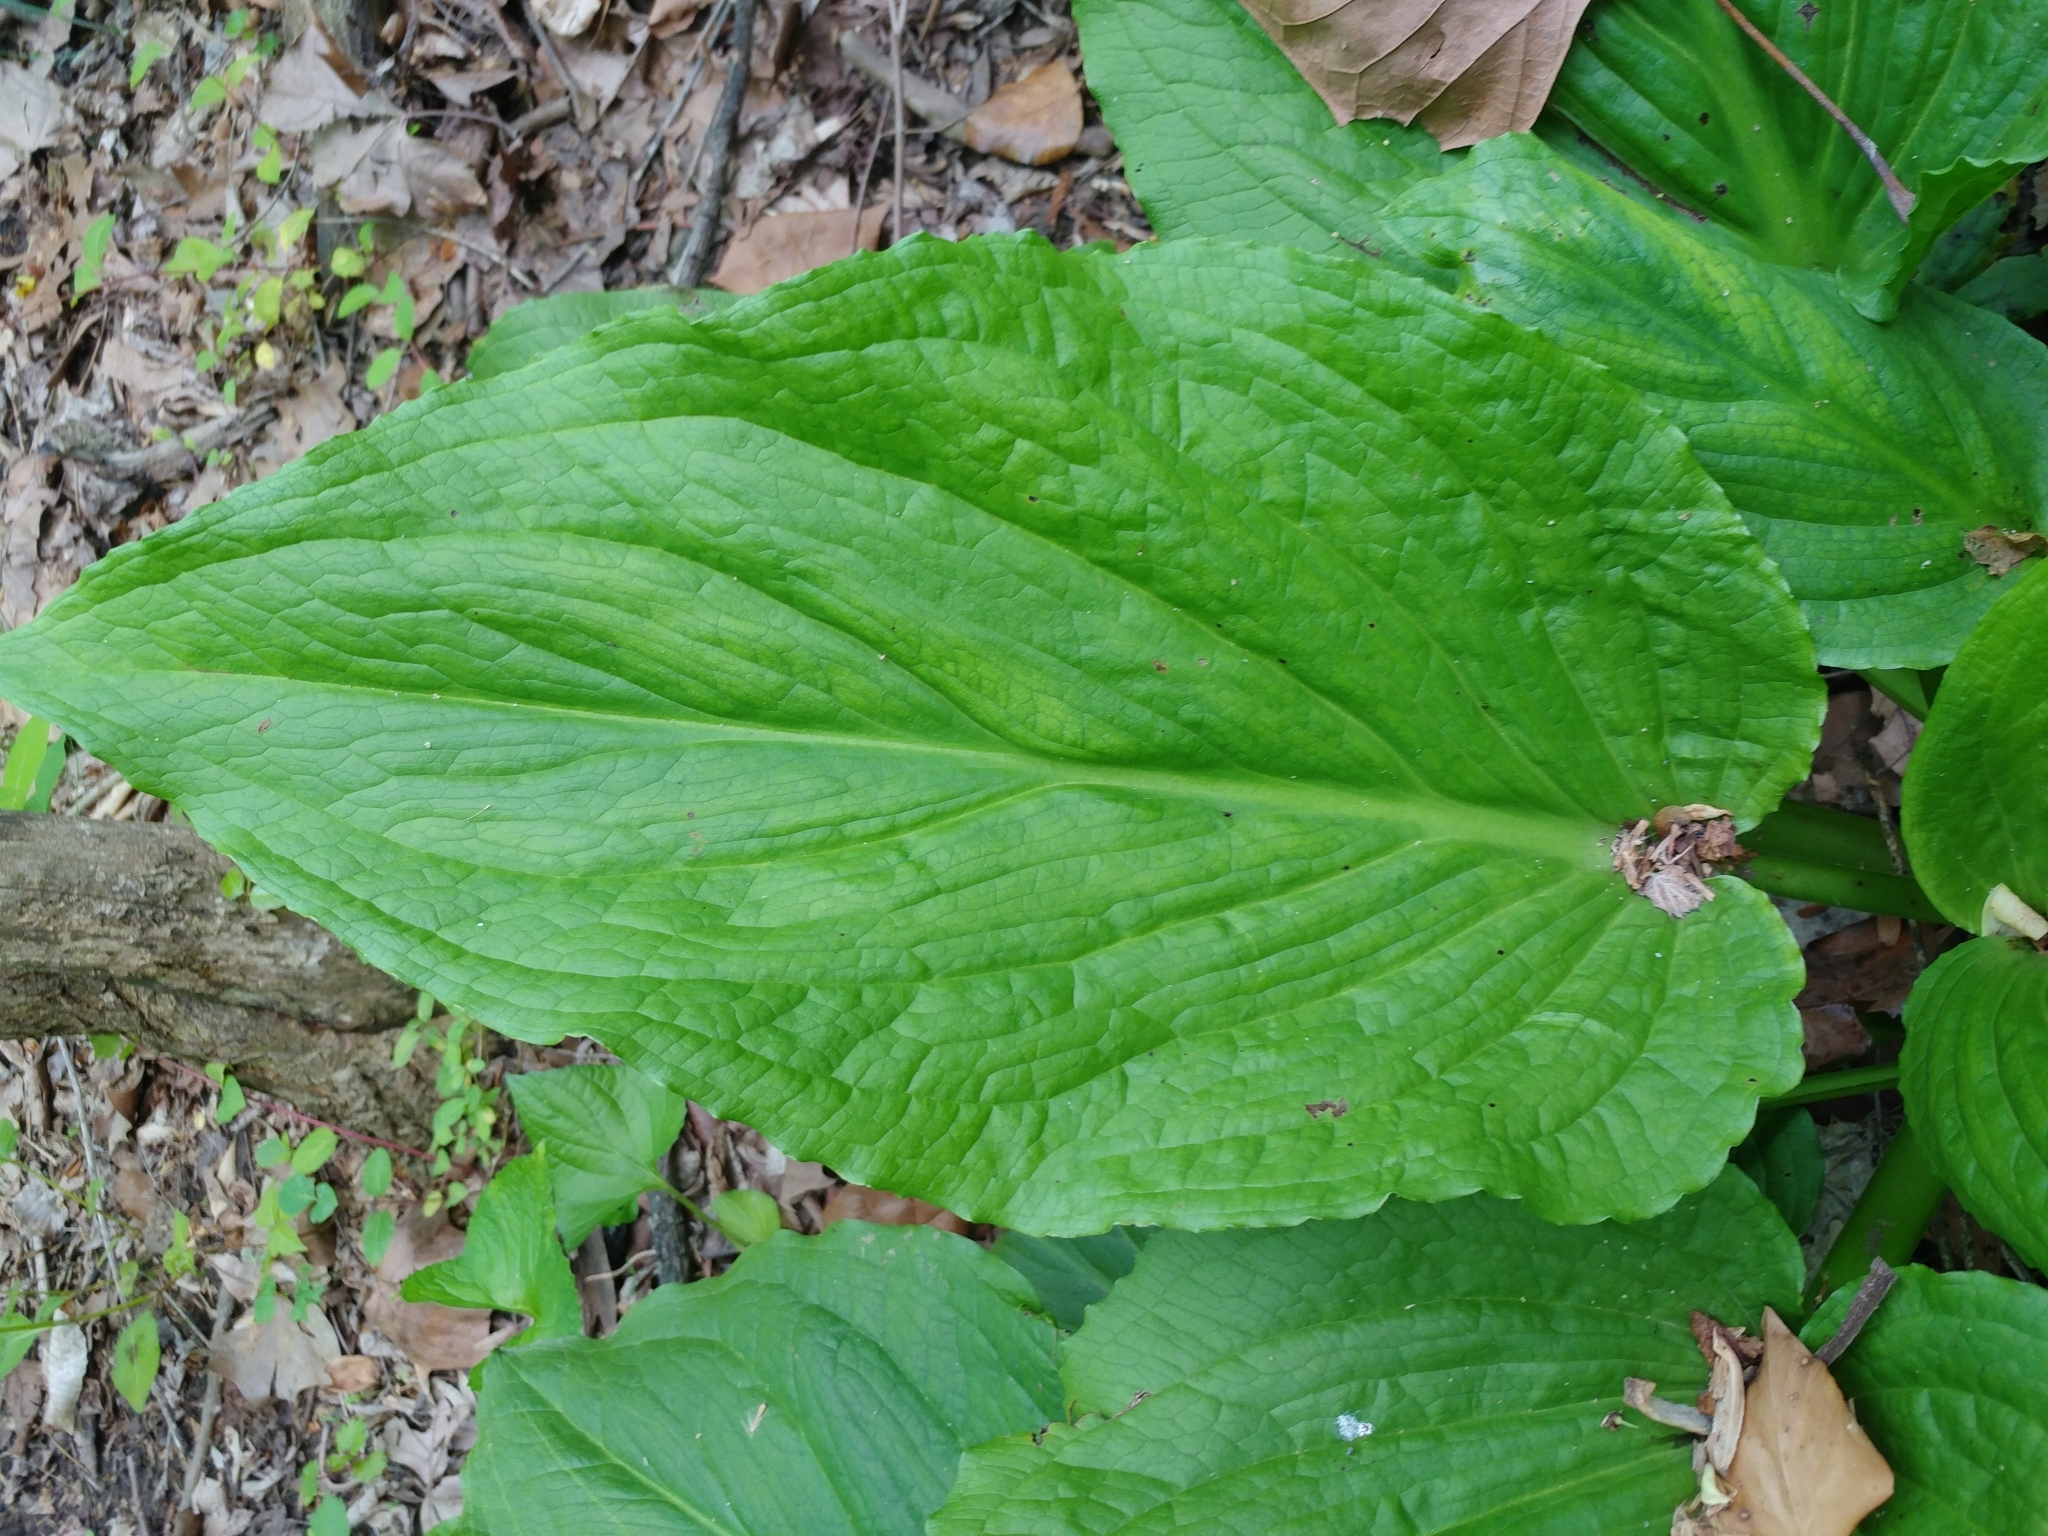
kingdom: Plantae
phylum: Tracheophyta
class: Liliopsida
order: Alismatales
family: Araceae
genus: Symplocarpus
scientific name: Symplocarpus foetidus
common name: Eastern skunk cabbage
